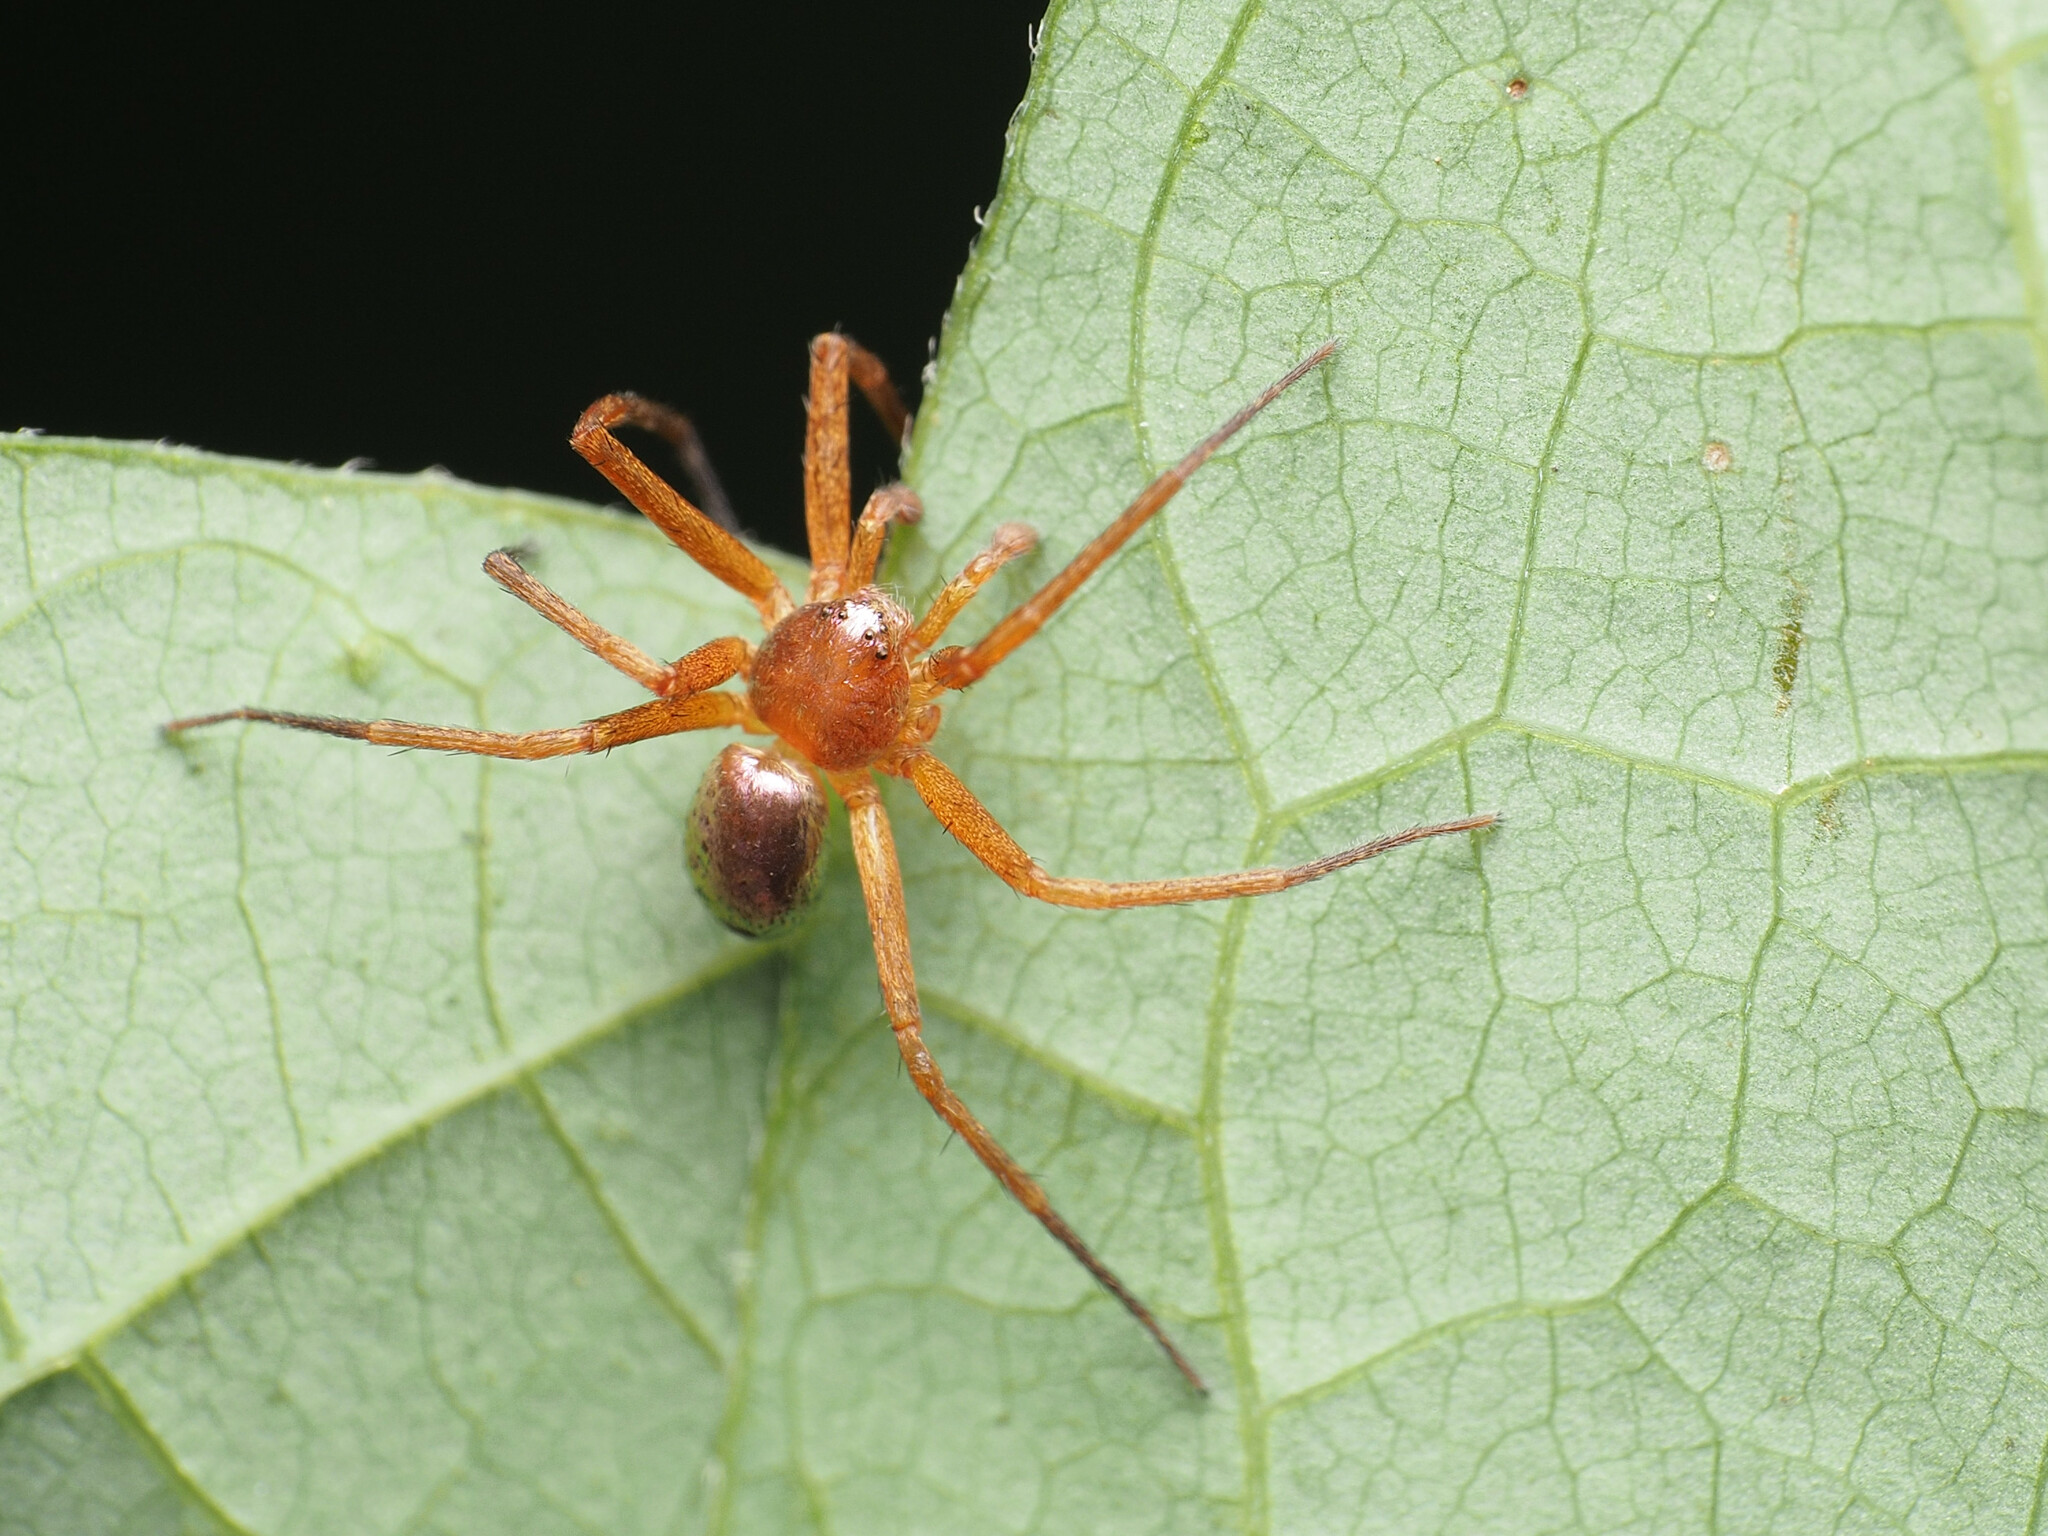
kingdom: Animalia
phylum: Arthropoda
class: Arachnida
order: Araneae
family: Philodromidae
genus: Philodromus
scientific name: Philodromus marxi
